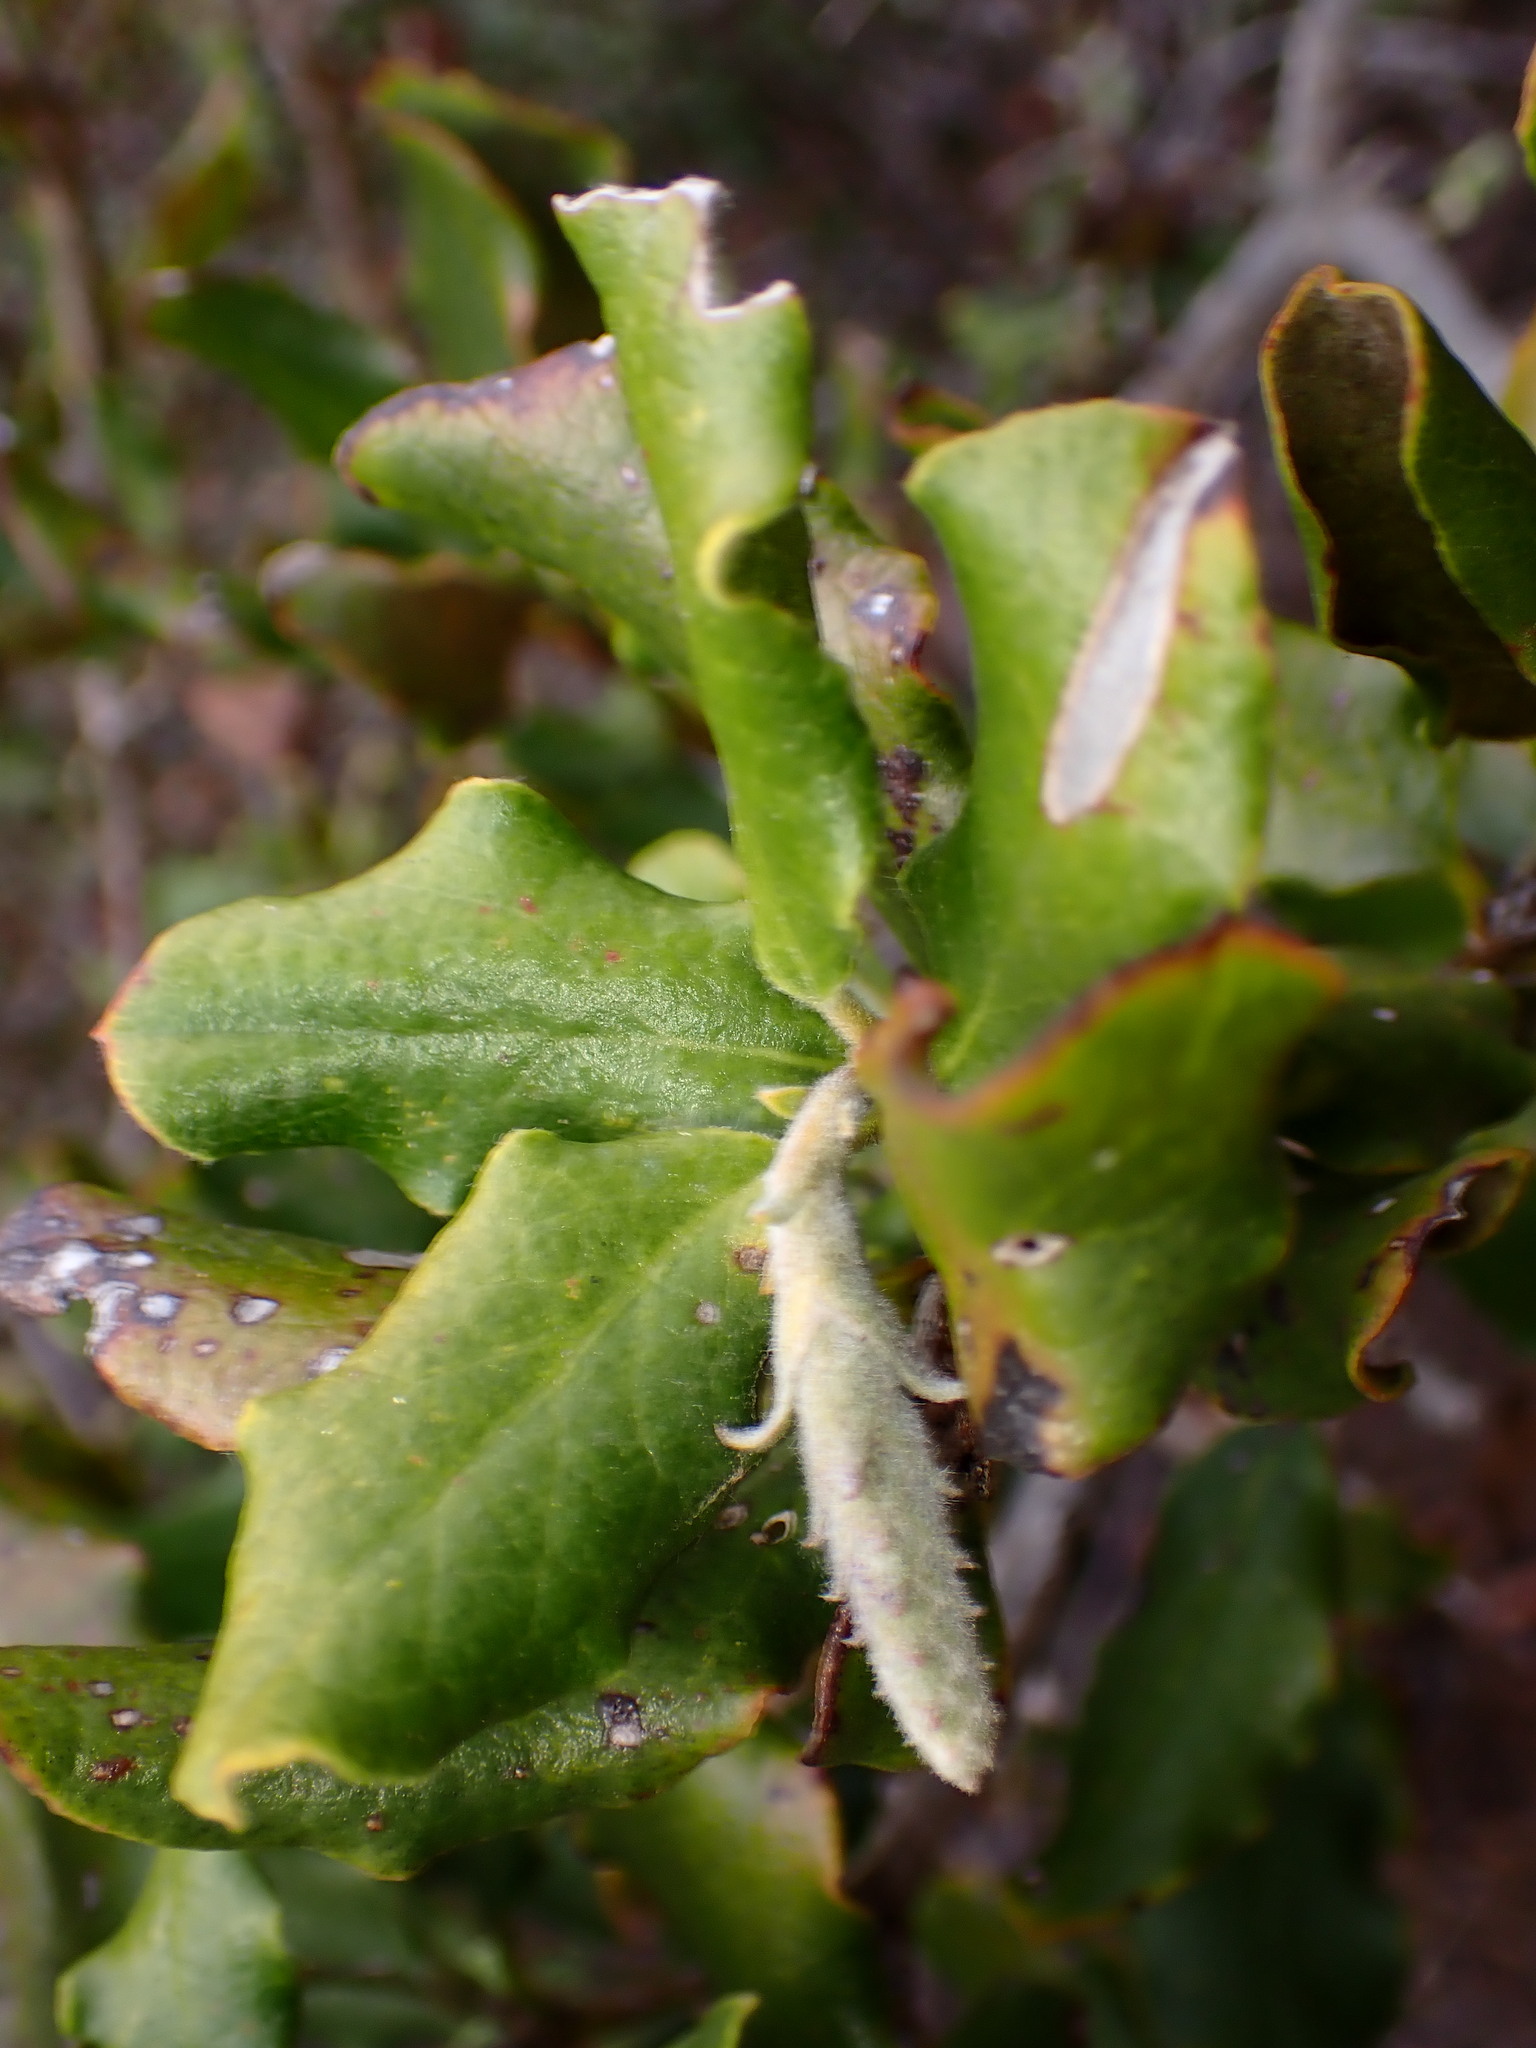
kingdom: Plantae
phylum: Tracheophyta
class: Magnoliopsida
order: Garryales
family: Garryaceae
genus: Garrya
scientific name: Garrya elliptica
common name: Silk-tassel
